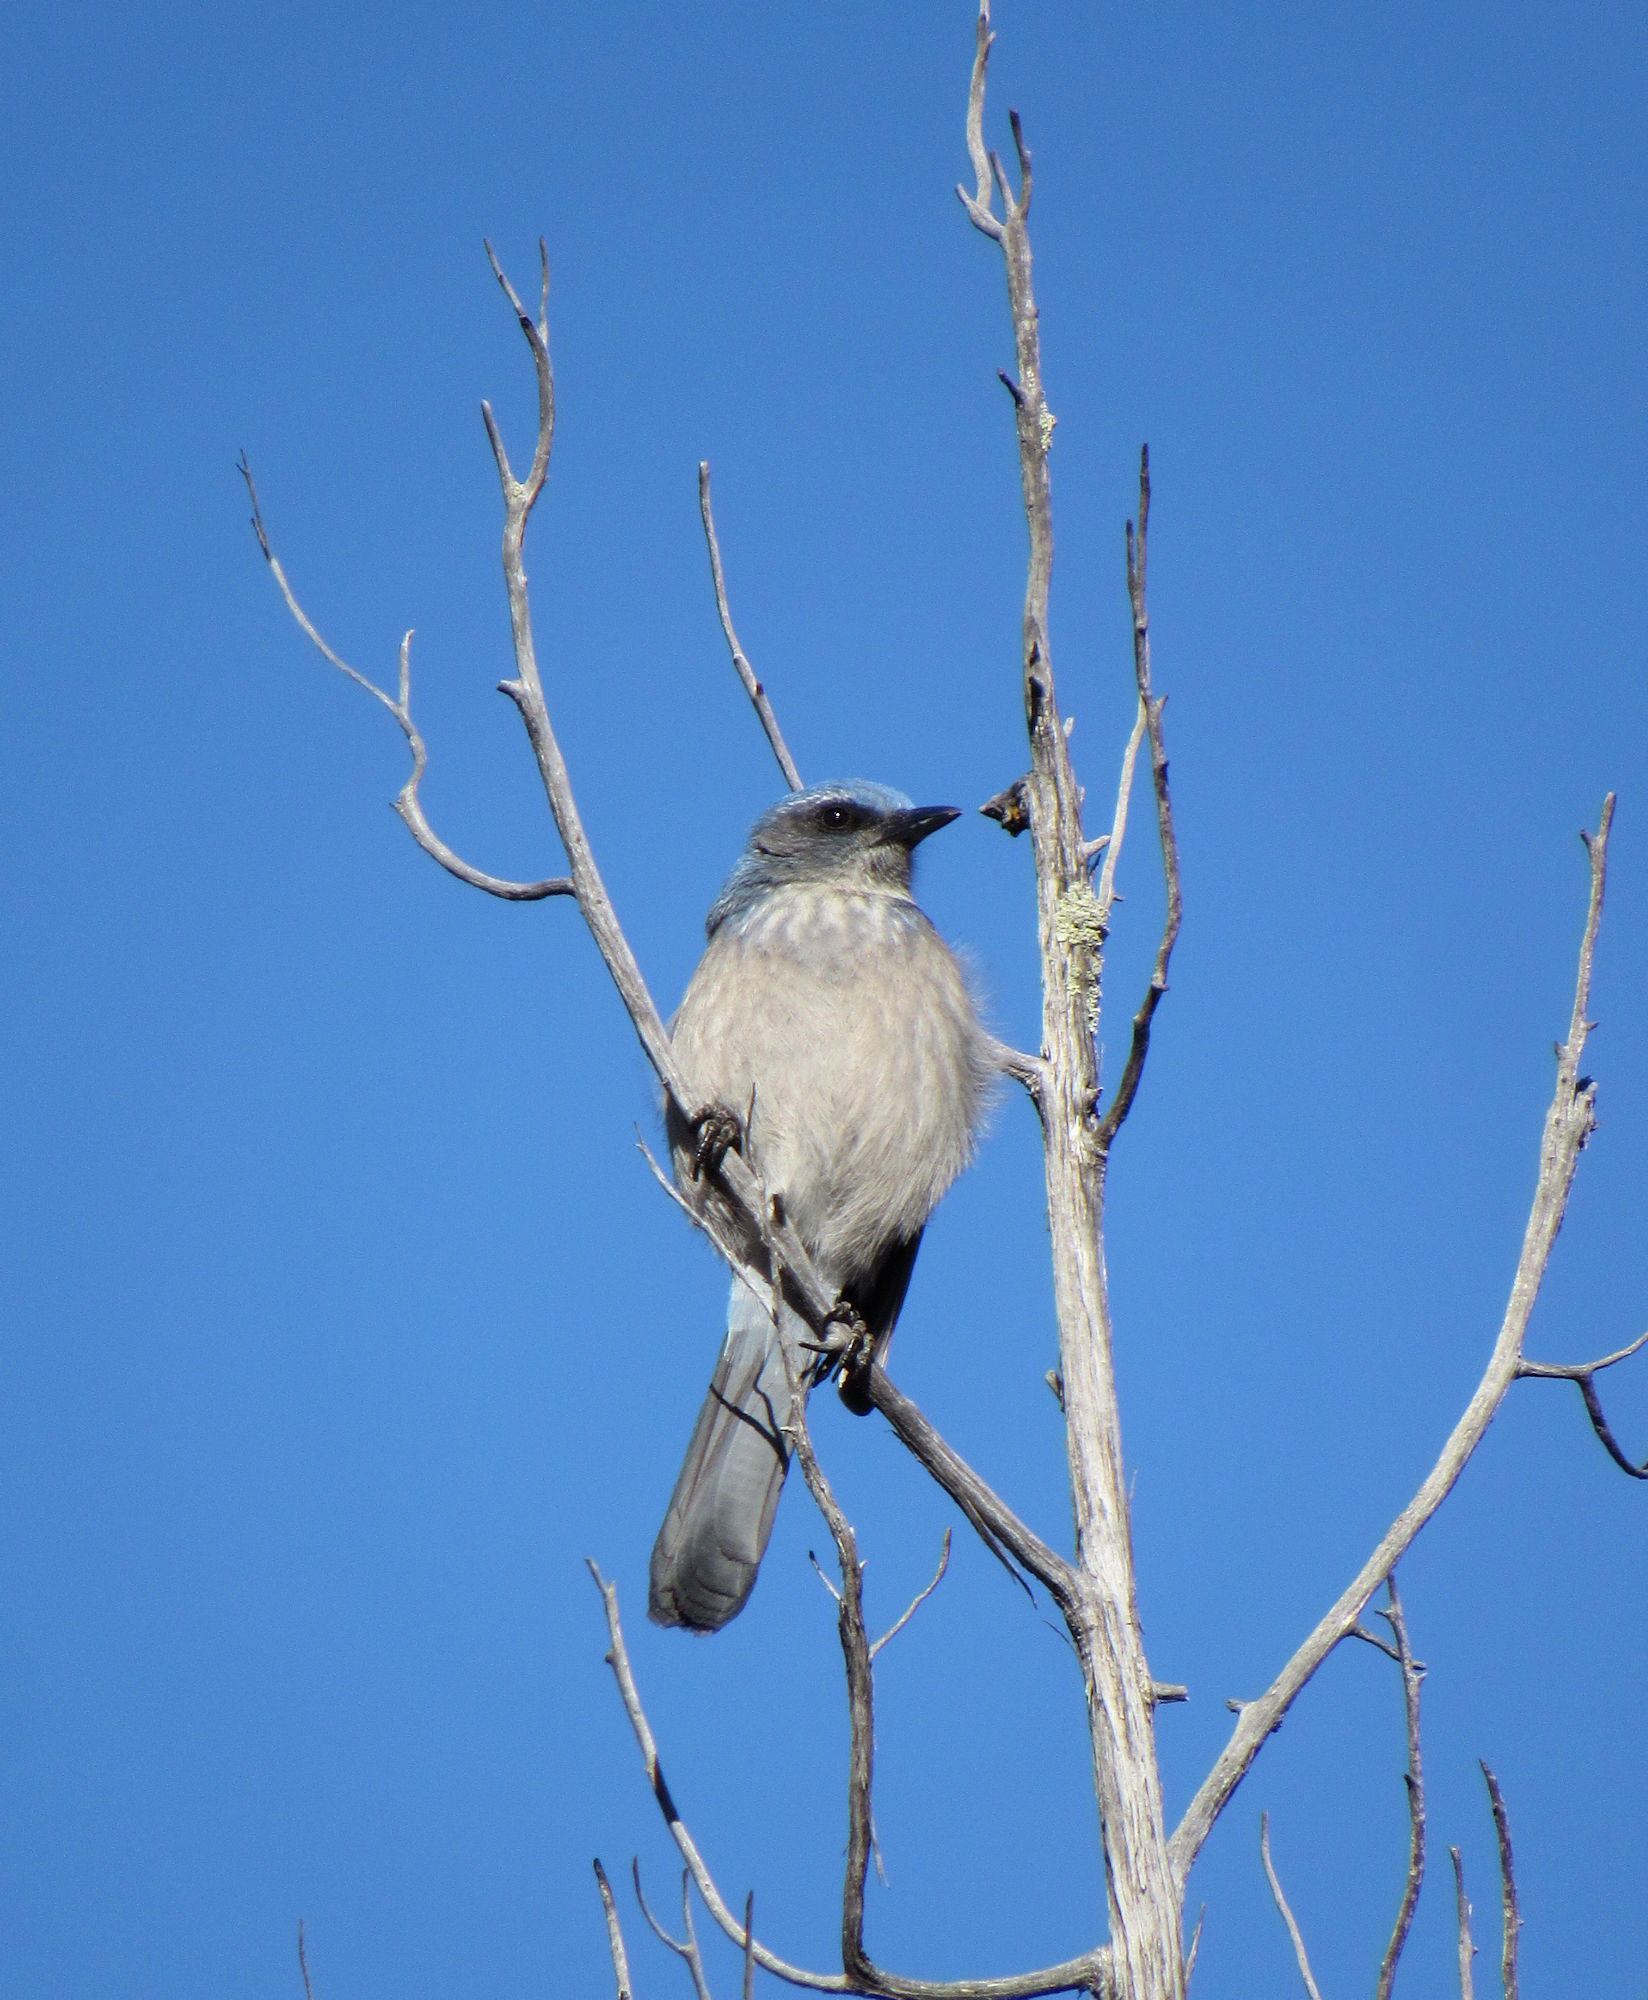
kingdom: Animalia
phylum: Chordata
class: Aves
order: Passeriformes
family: Corvidae
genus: Aphelocoma
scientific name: Aphelocoma woodhouseii
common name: Woodhouse's scrub-jay
